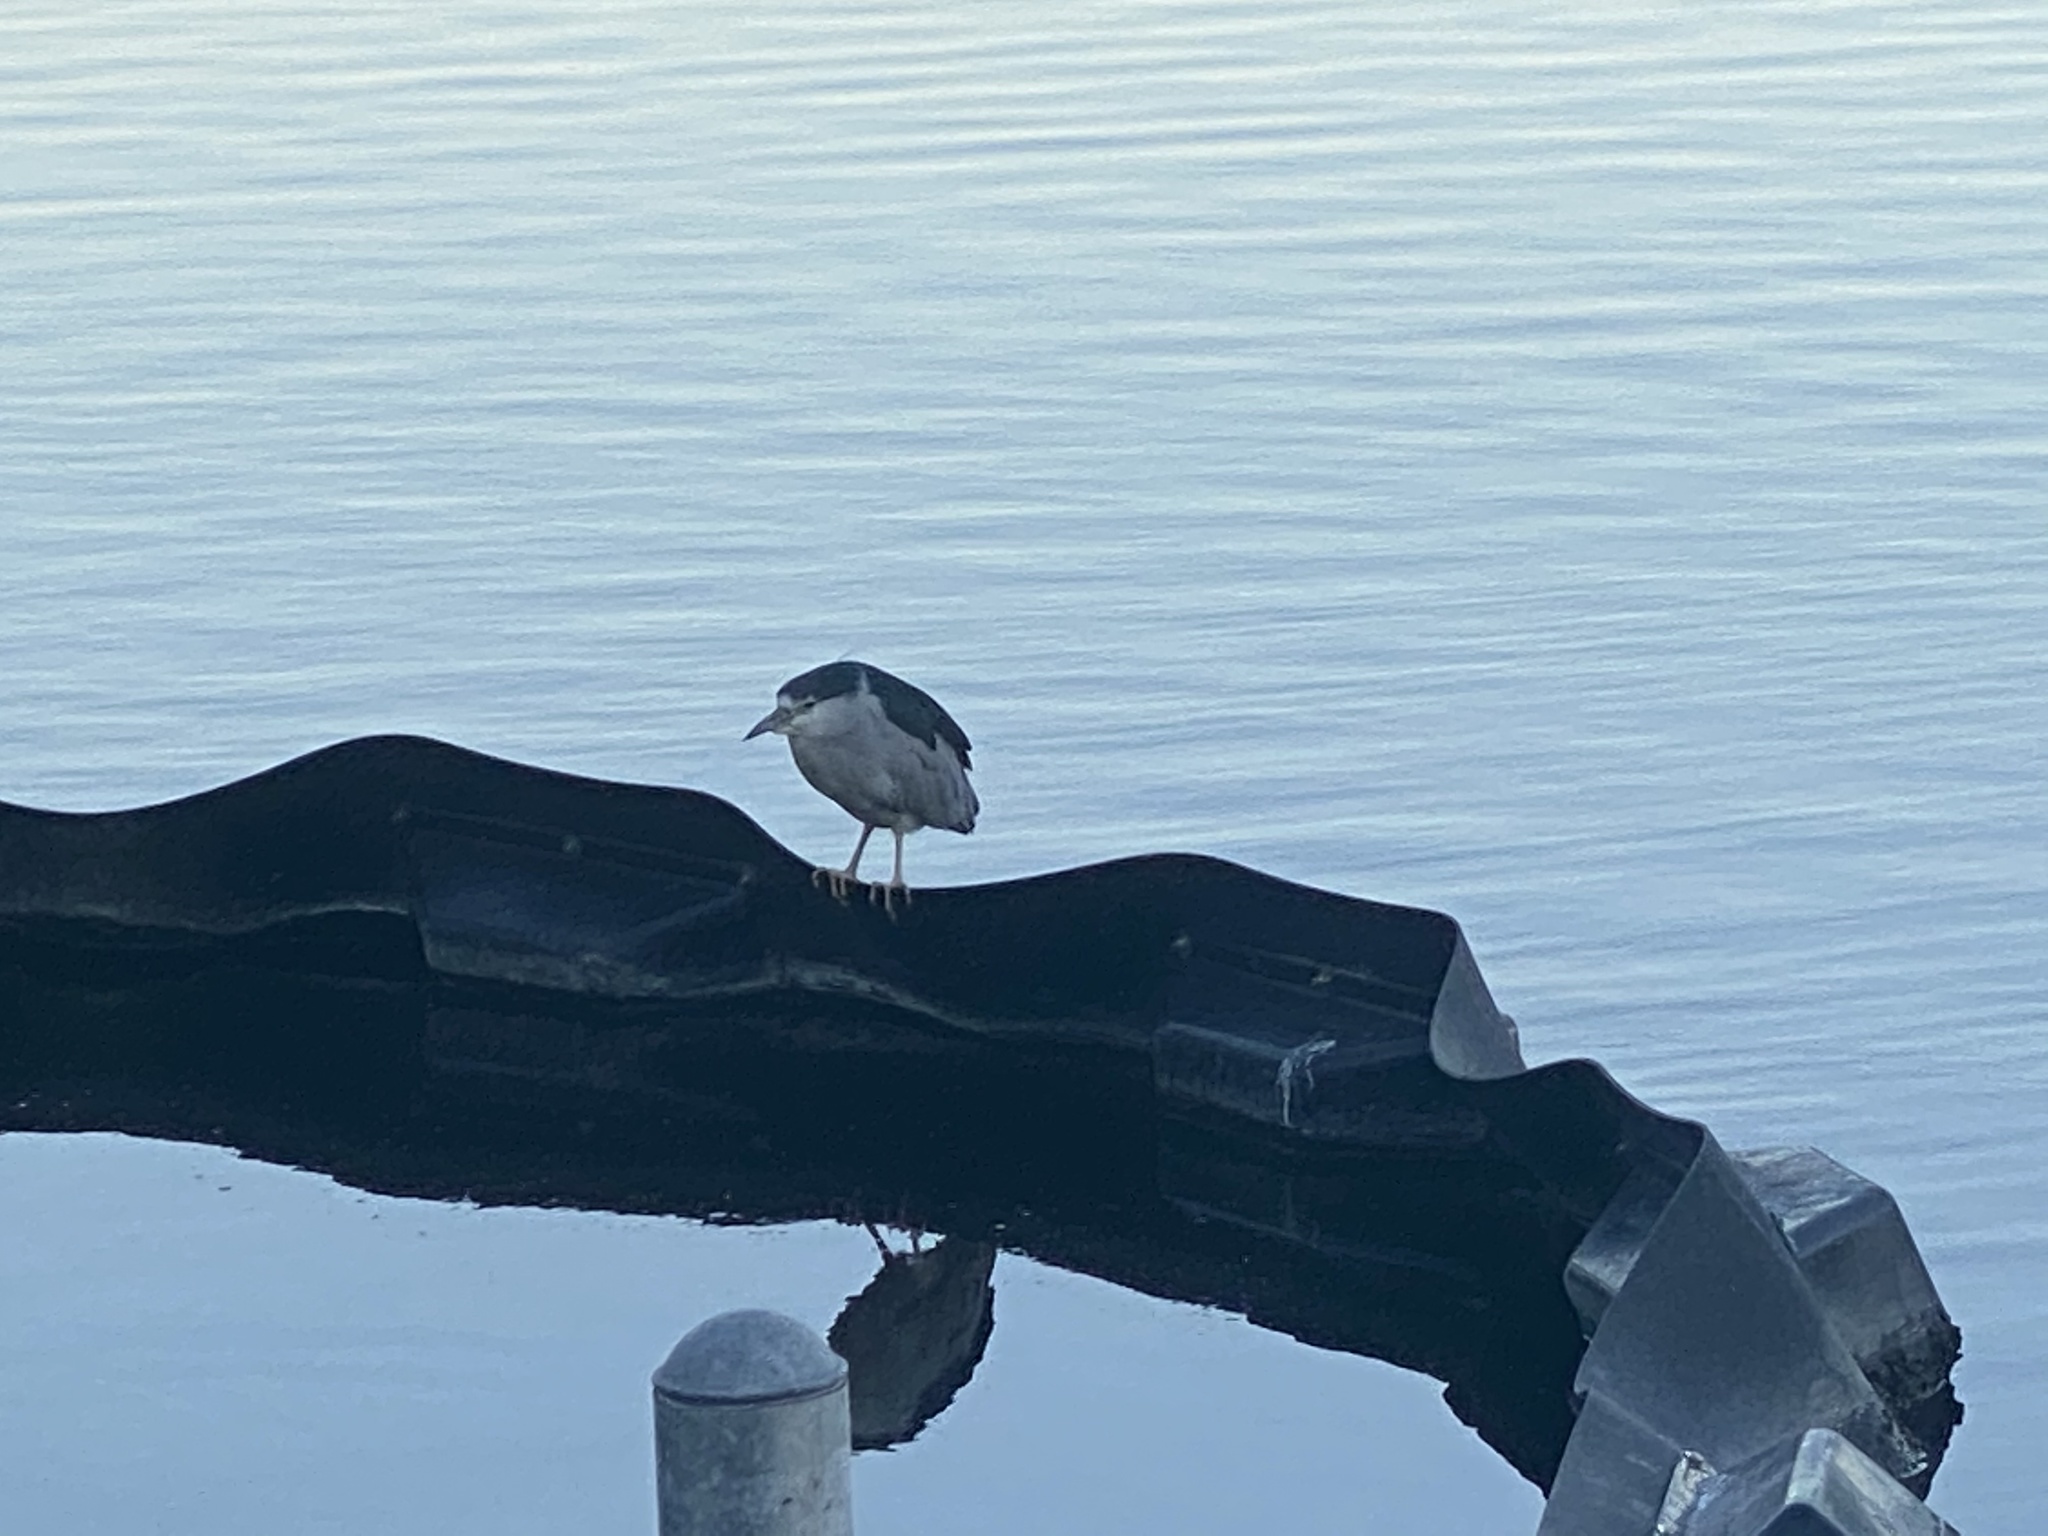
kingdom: Animalia
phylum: Chordata
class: Aves
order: Pelecaniformes
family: Ardeidae
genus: Nycticorax
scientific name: Nycticorax nycticorax
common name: Black-crowned night heron
